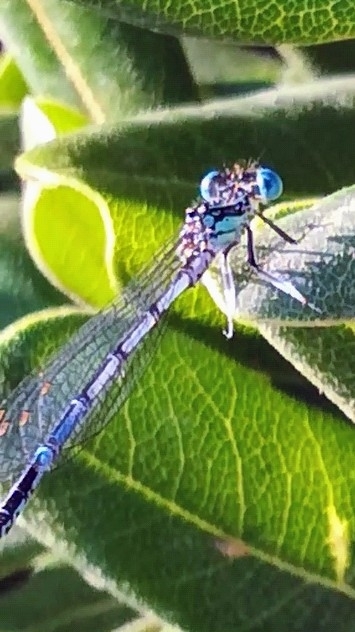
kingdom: Animalia
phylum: Arthropoda
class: Insecta
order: Odonata
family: Platycnemididae
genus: Platycnemis
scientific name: Platycnemis pennipes
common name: White-legged damselfly
